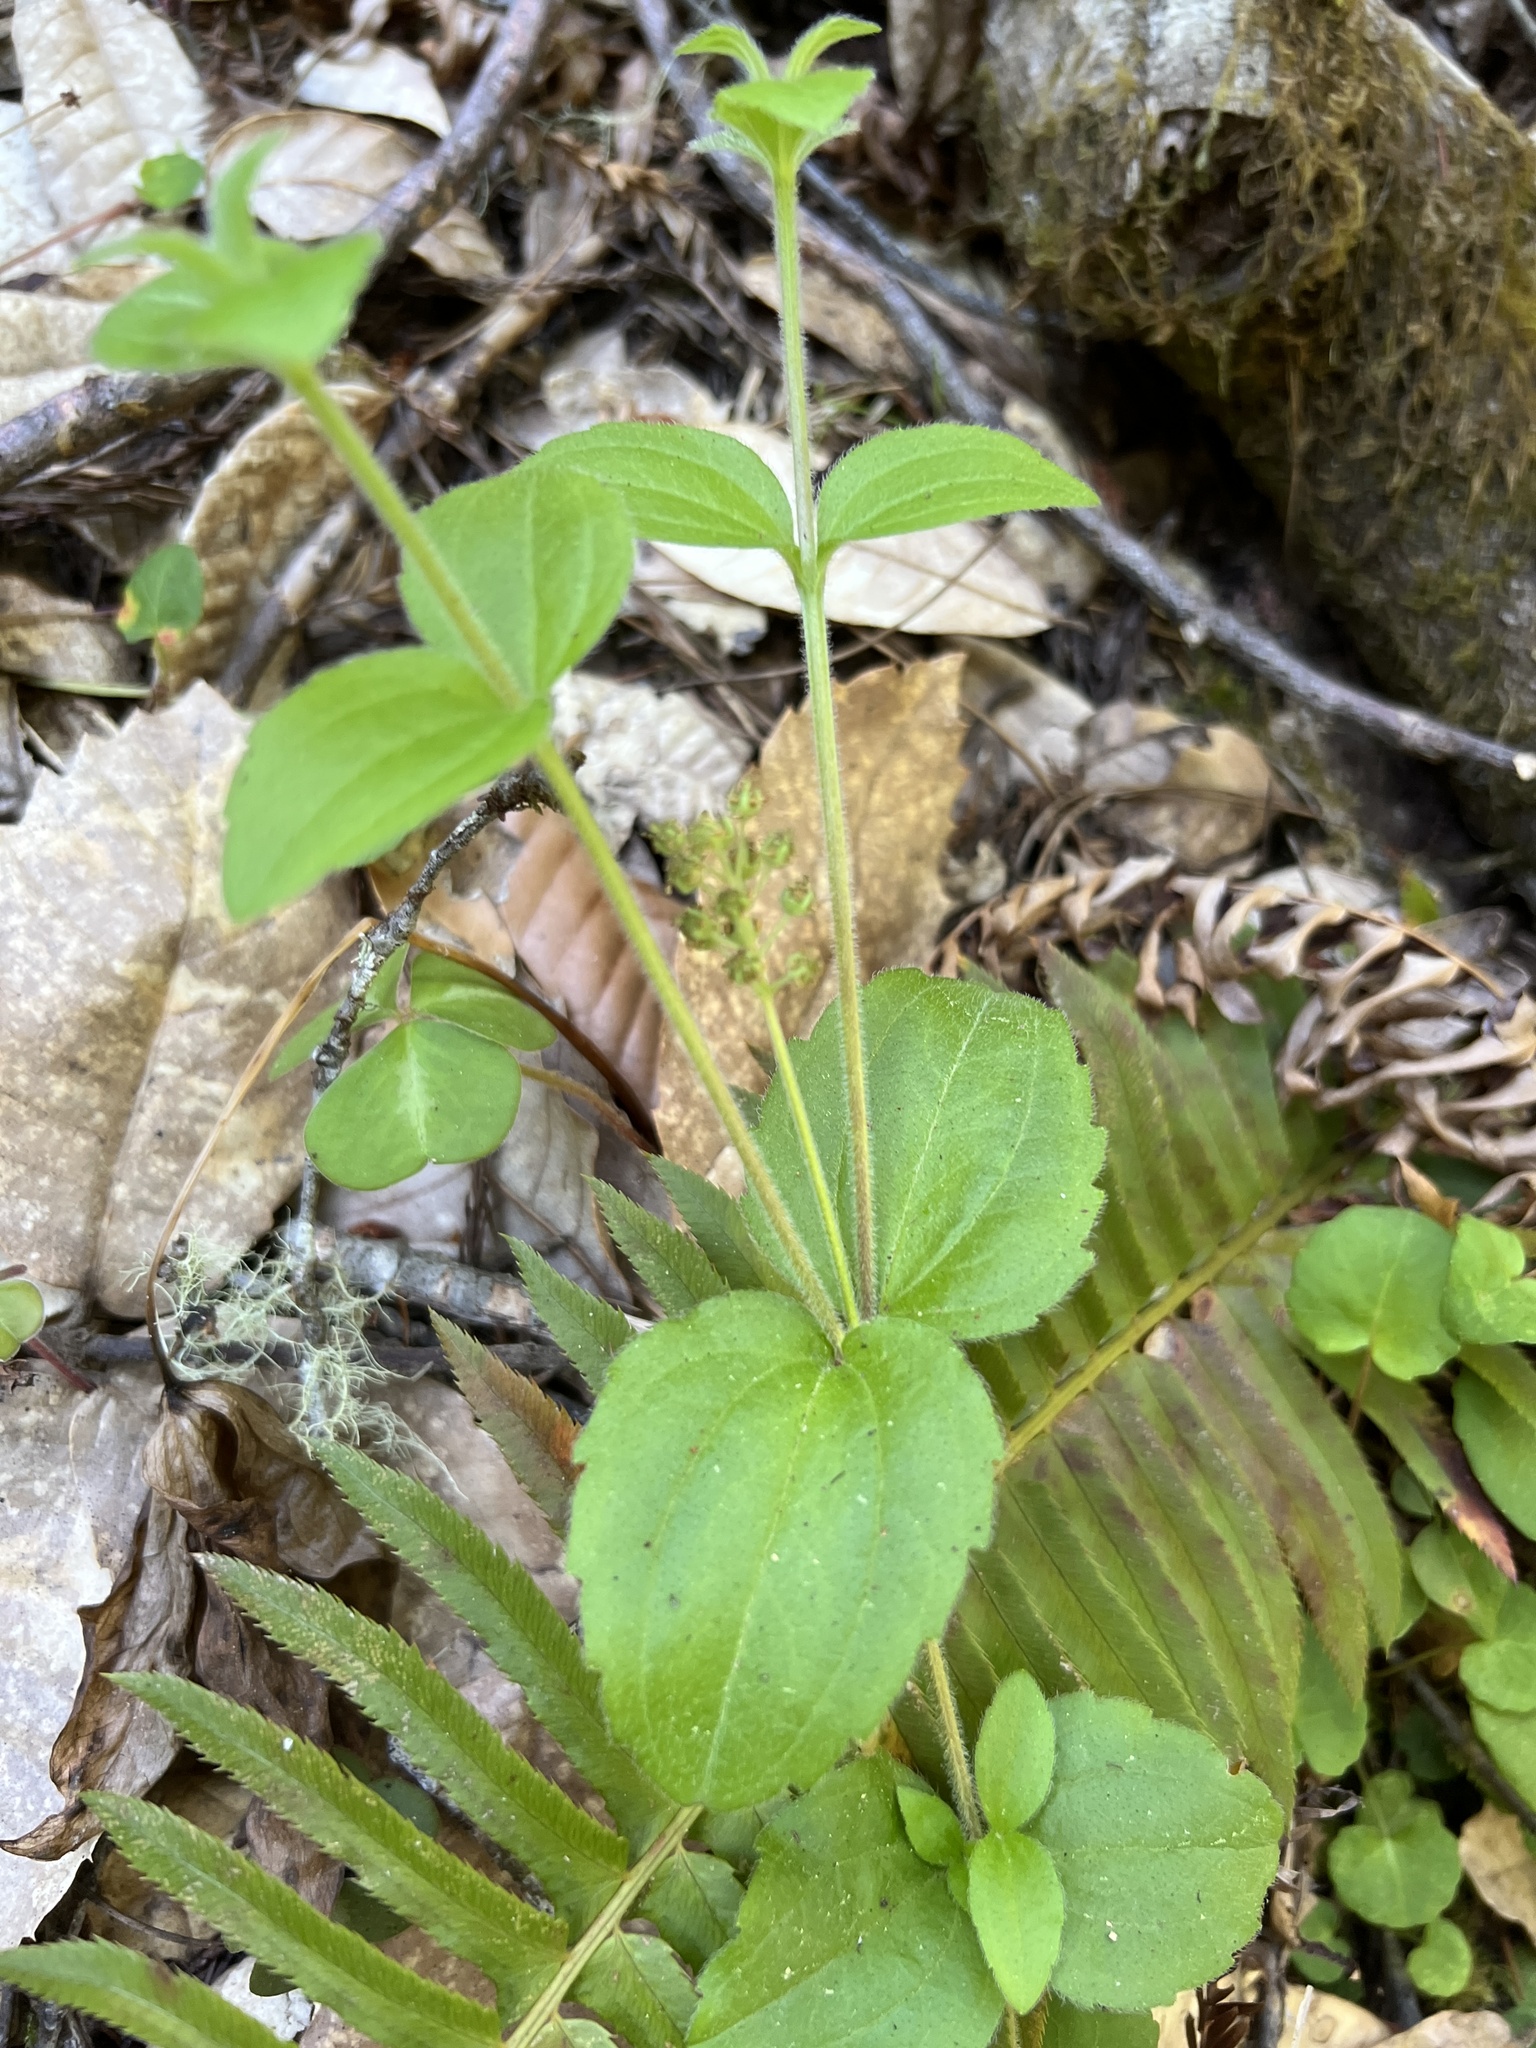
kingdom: Plantae
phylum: Tracheophyta
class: Magnoliopsida
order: Cornales
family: Hydrangeaceae
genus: Whipplea
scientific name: Whipplea modesta
